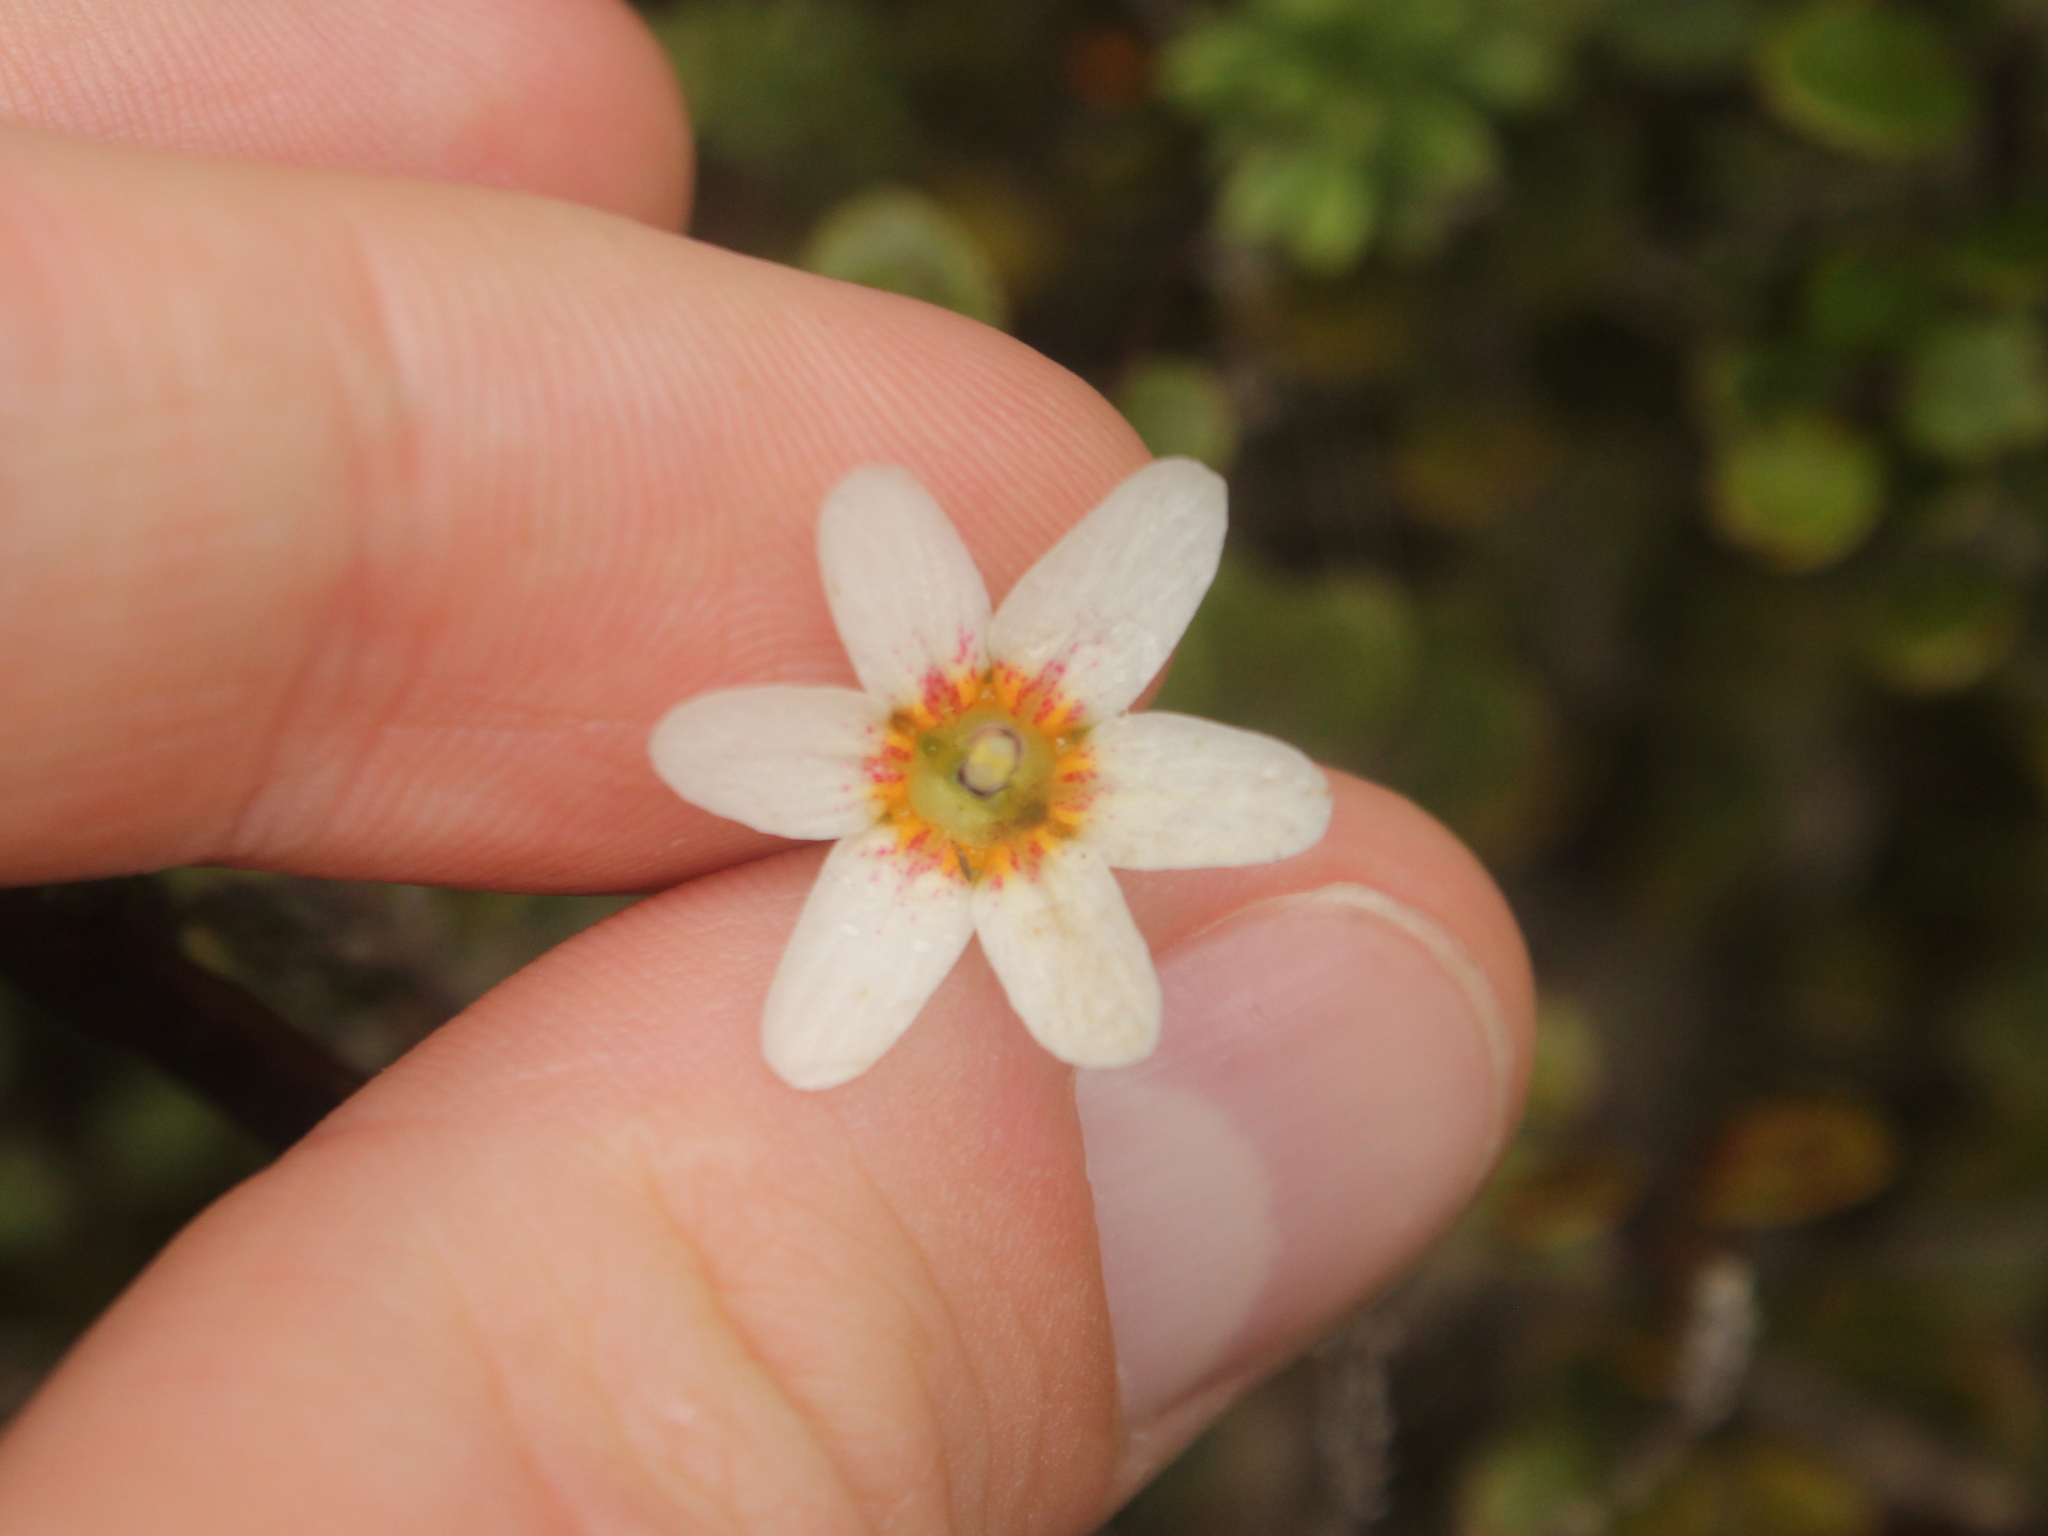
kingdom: Plantae
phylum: Tracheophyta
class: Magnoliopsida
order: Asterales
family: Stylidiaceae
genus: Forstera
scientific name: Forstera tenella
